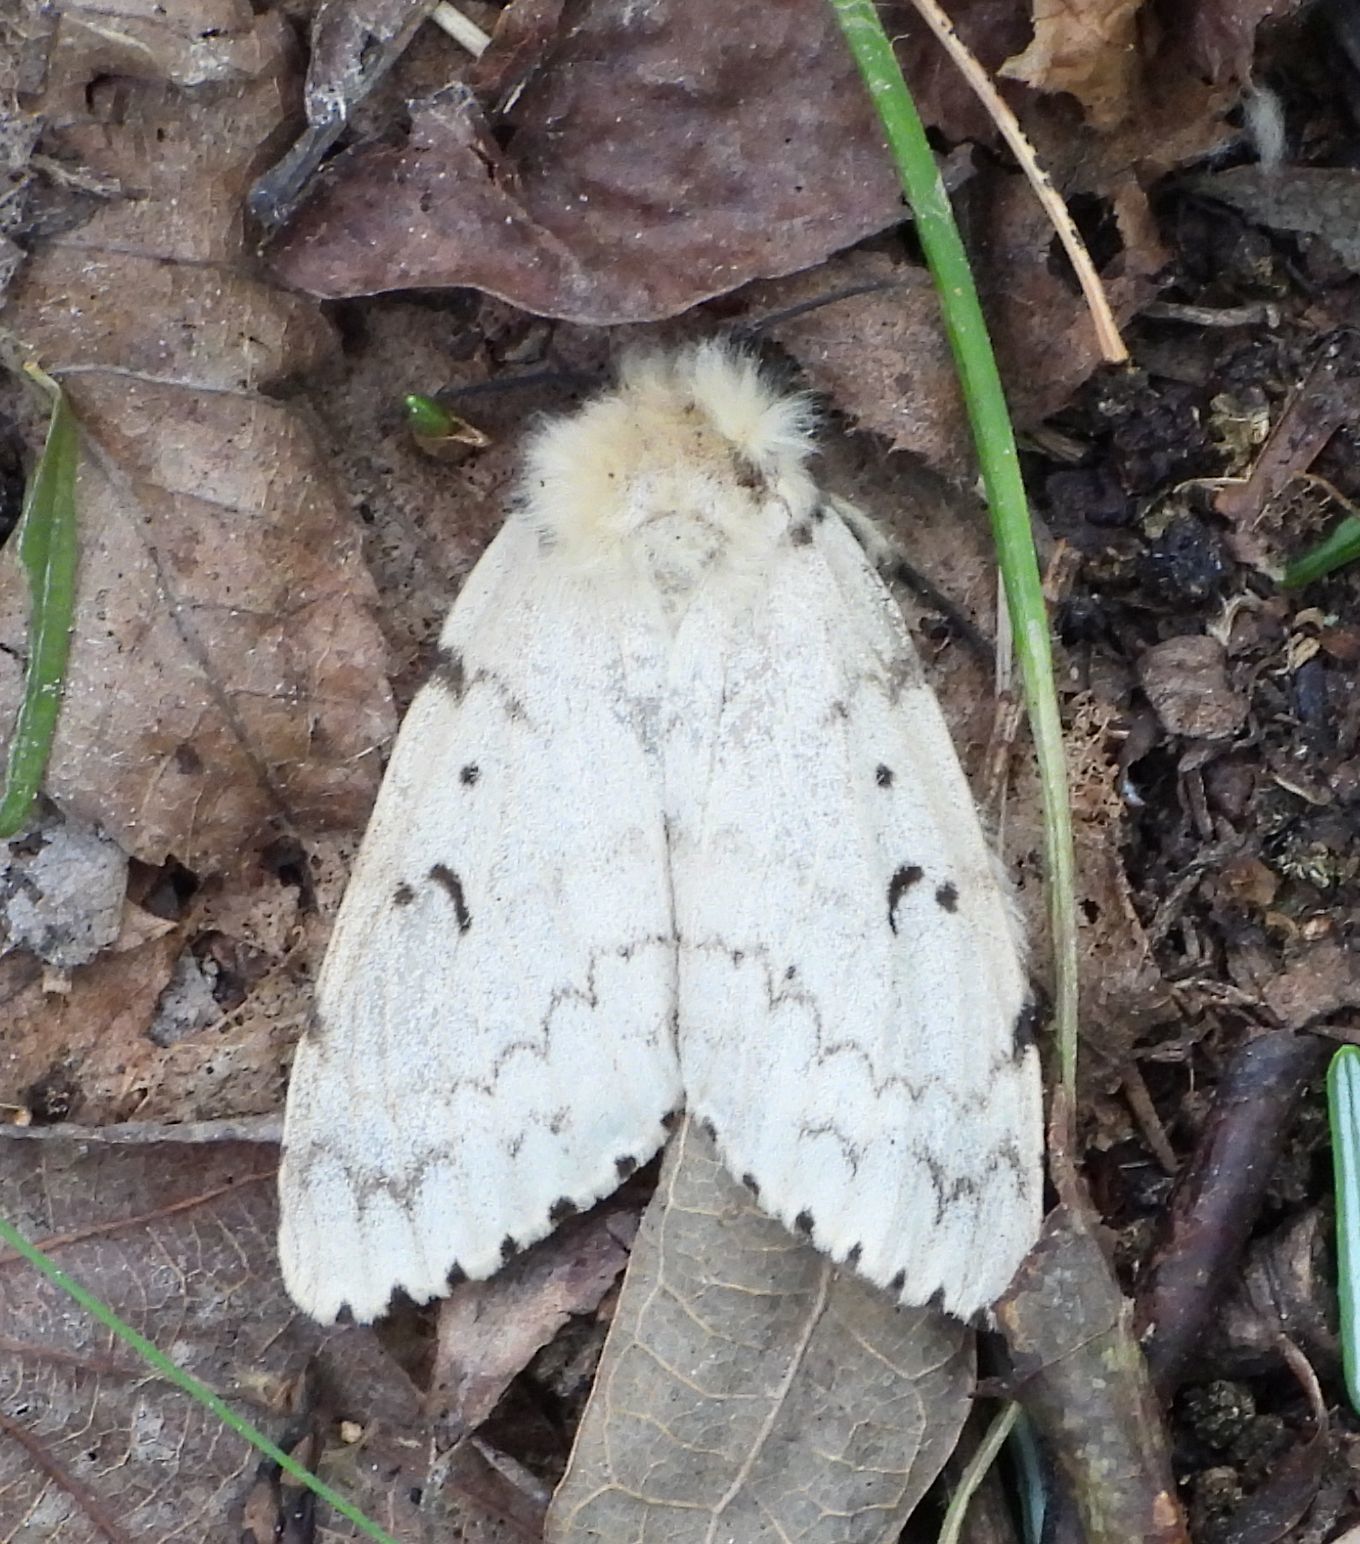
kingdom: Animalia
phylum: Arthropoda
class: Insecta
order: Lepidoptera
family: Erebidae
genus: Lymantria
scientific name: Lymantria dispar
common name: Gypsy moth
